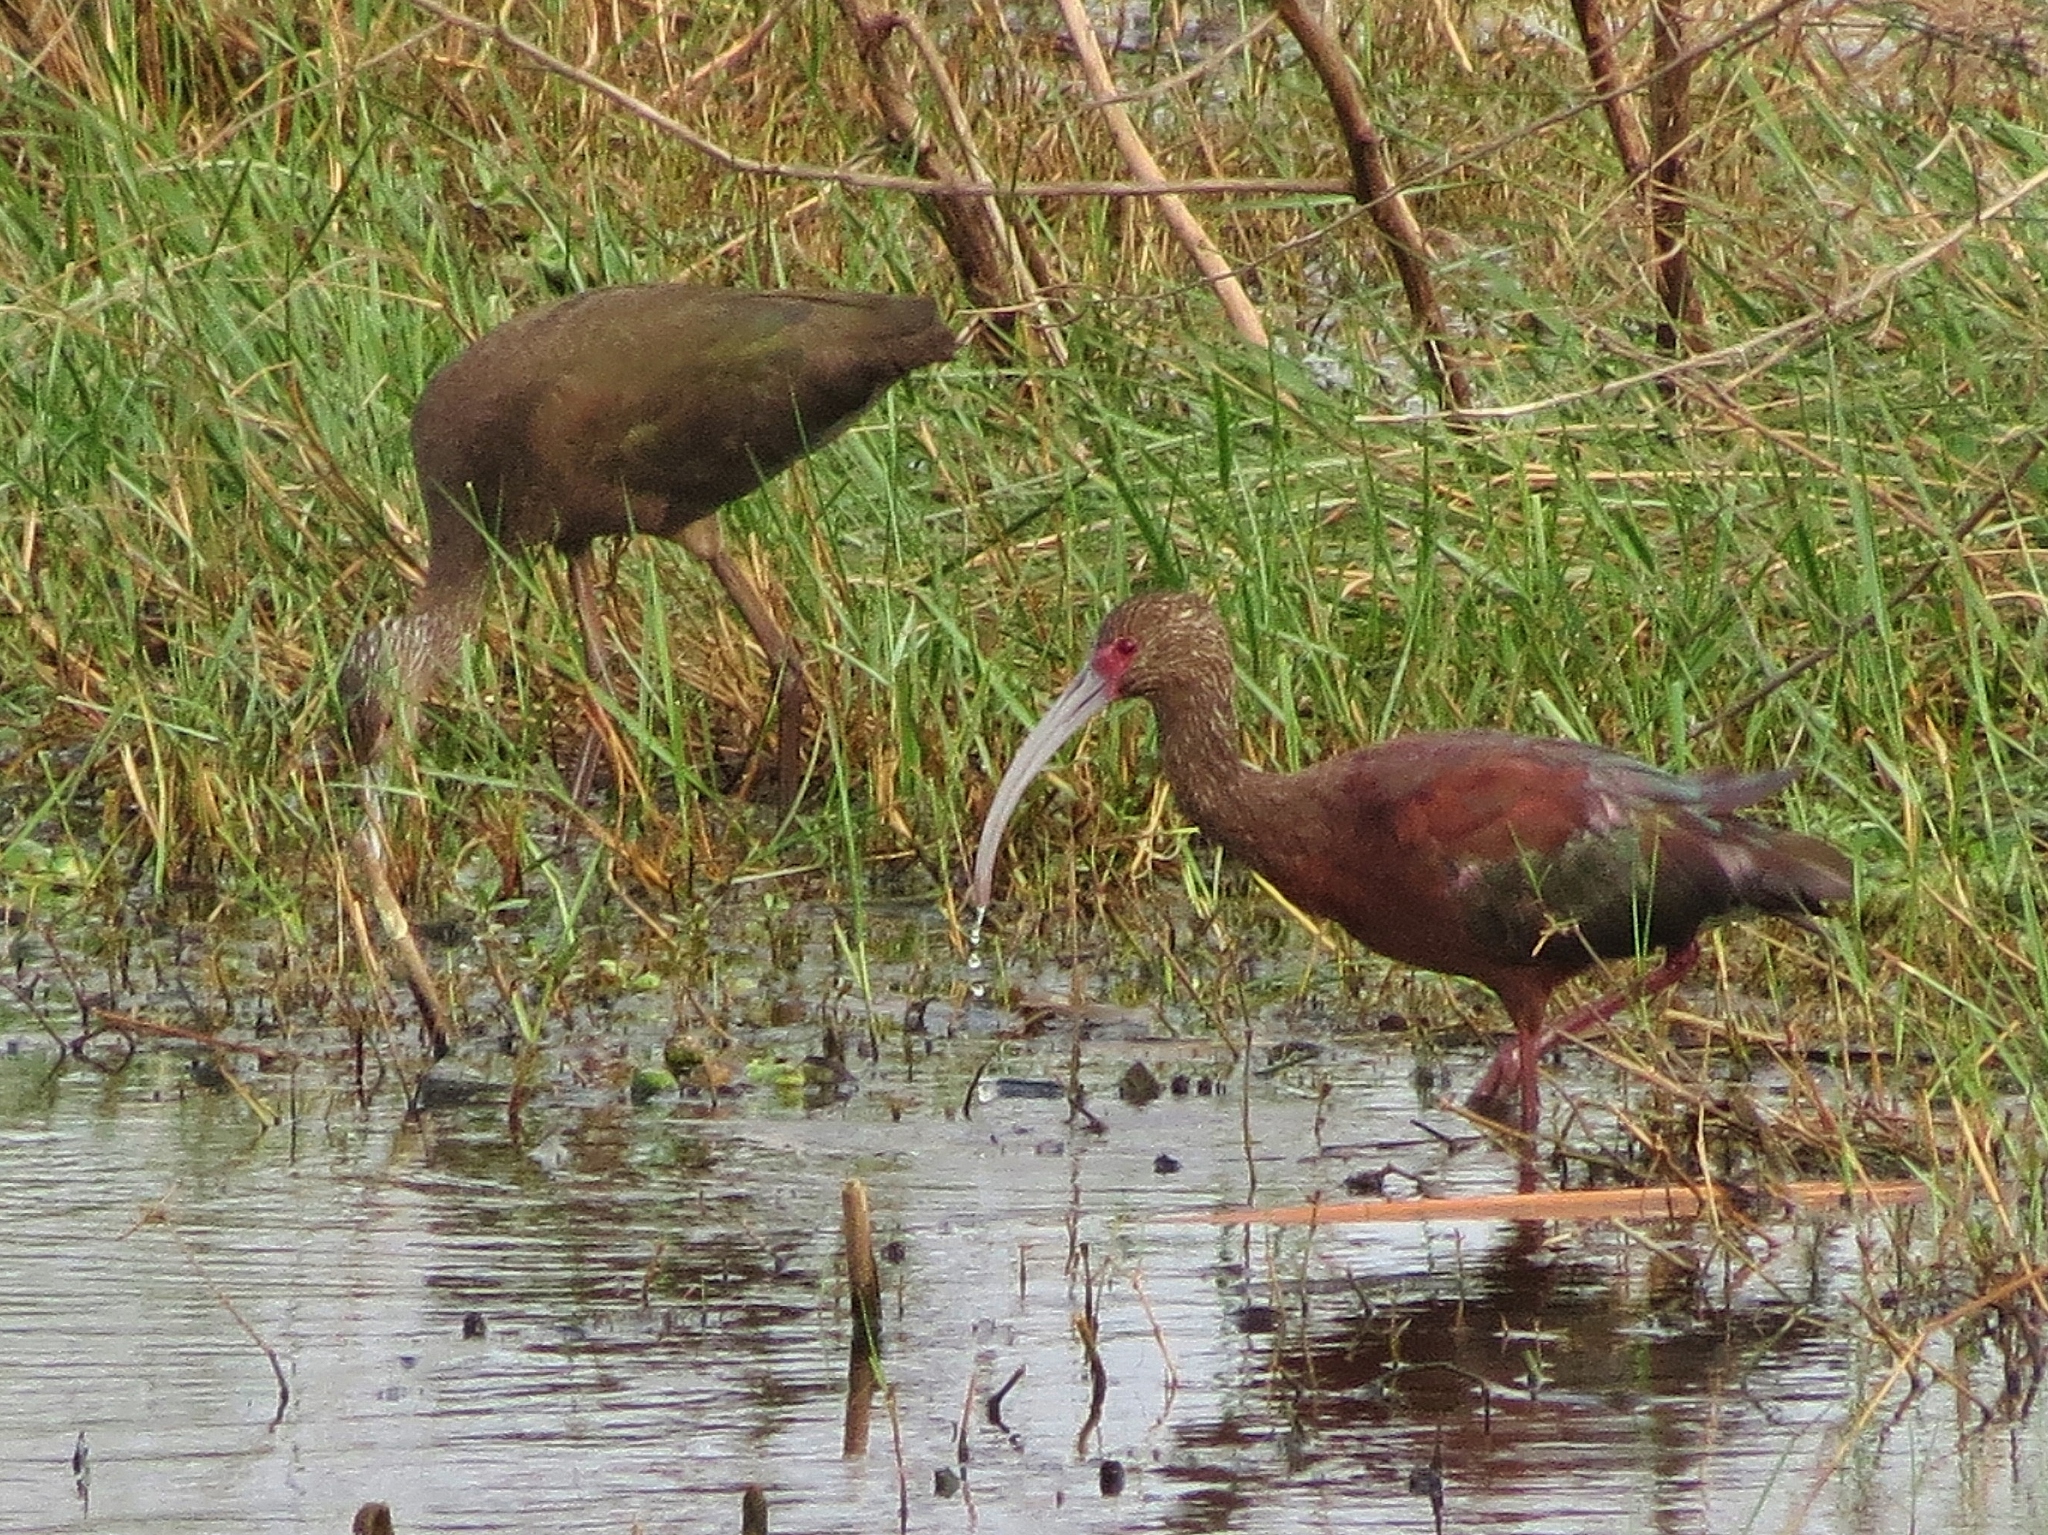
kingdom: Animalia
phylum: Chordata
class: Aves
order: Pelecaniformes
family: Threskiornithidae
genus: Plegadis
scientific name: Plegadis chihi
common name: White-faced ibis
